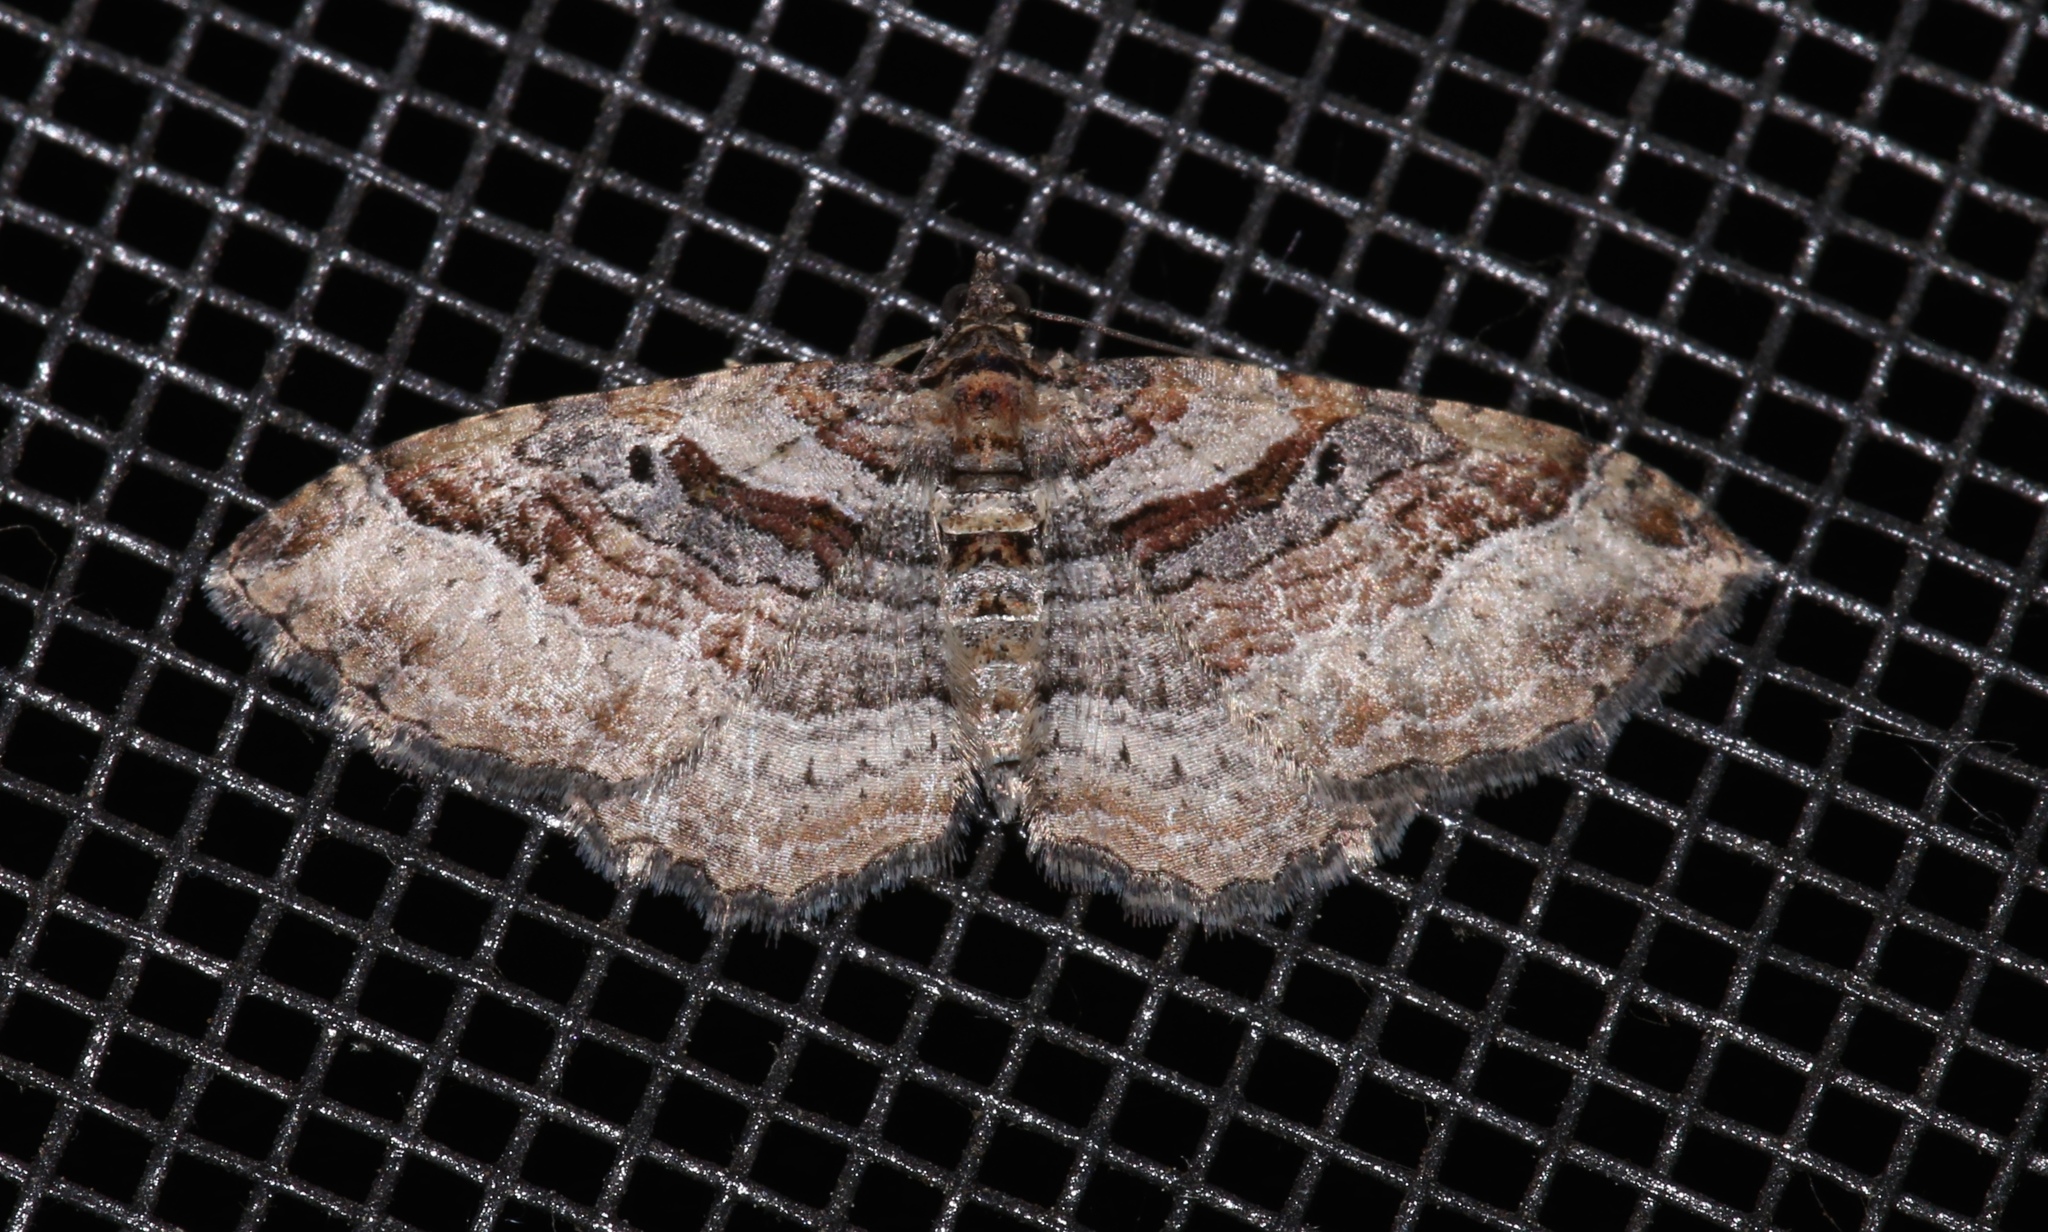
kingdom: Animalia
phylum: Arthropoda
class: Insecta
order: Lepidoptera
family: Geometridae
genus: Costaconvexa
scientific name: Costaconvexa centrostrigaria
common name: Bent-line carpet
